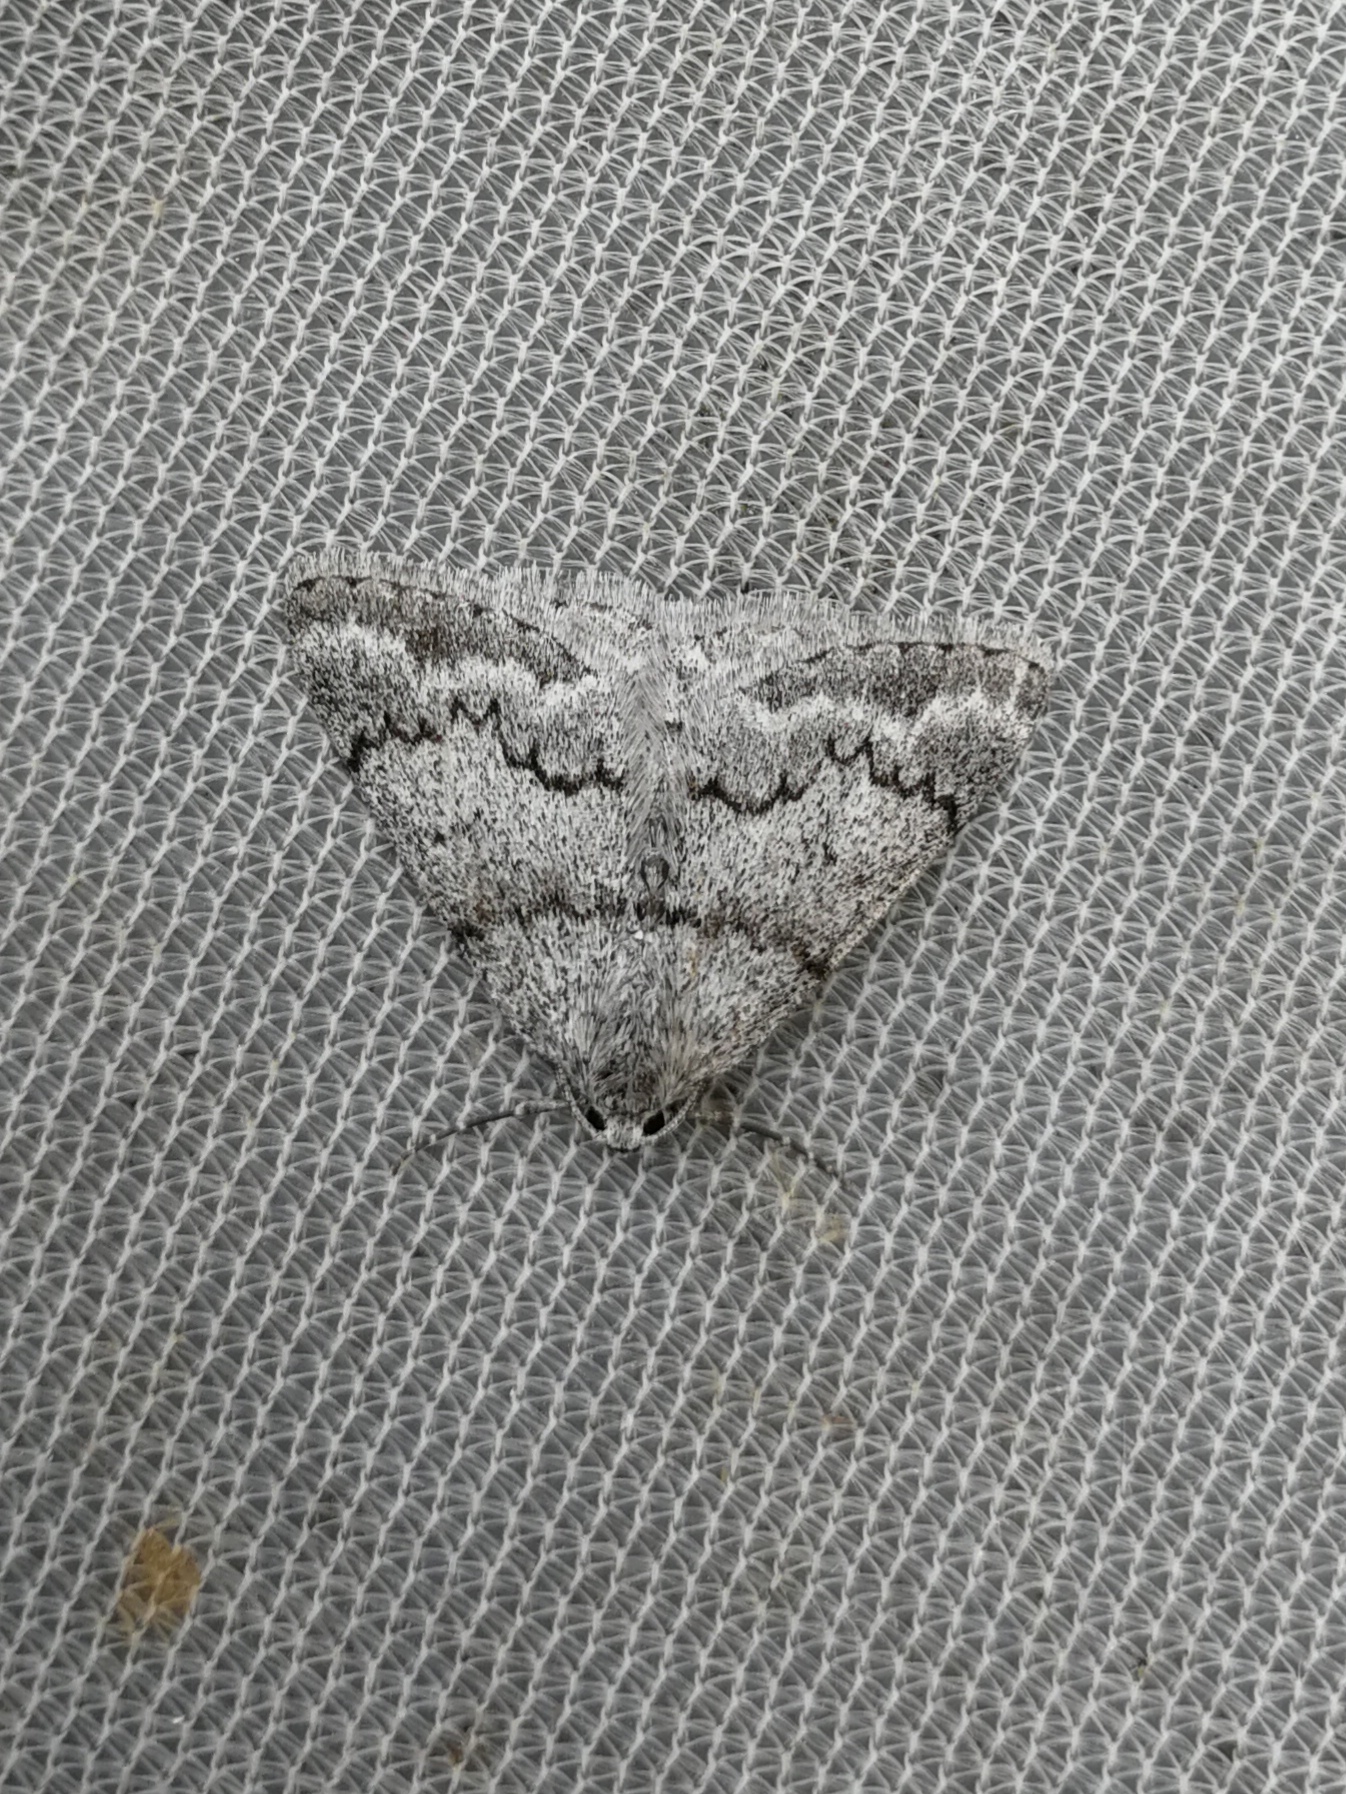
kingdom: Animalia
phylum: Arthropoda
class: Insecta
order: Lepidoptera
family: Geometridae
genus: Pseudoterpna
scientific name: Pseudoterpna coronillaria
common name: Jersey emerald
